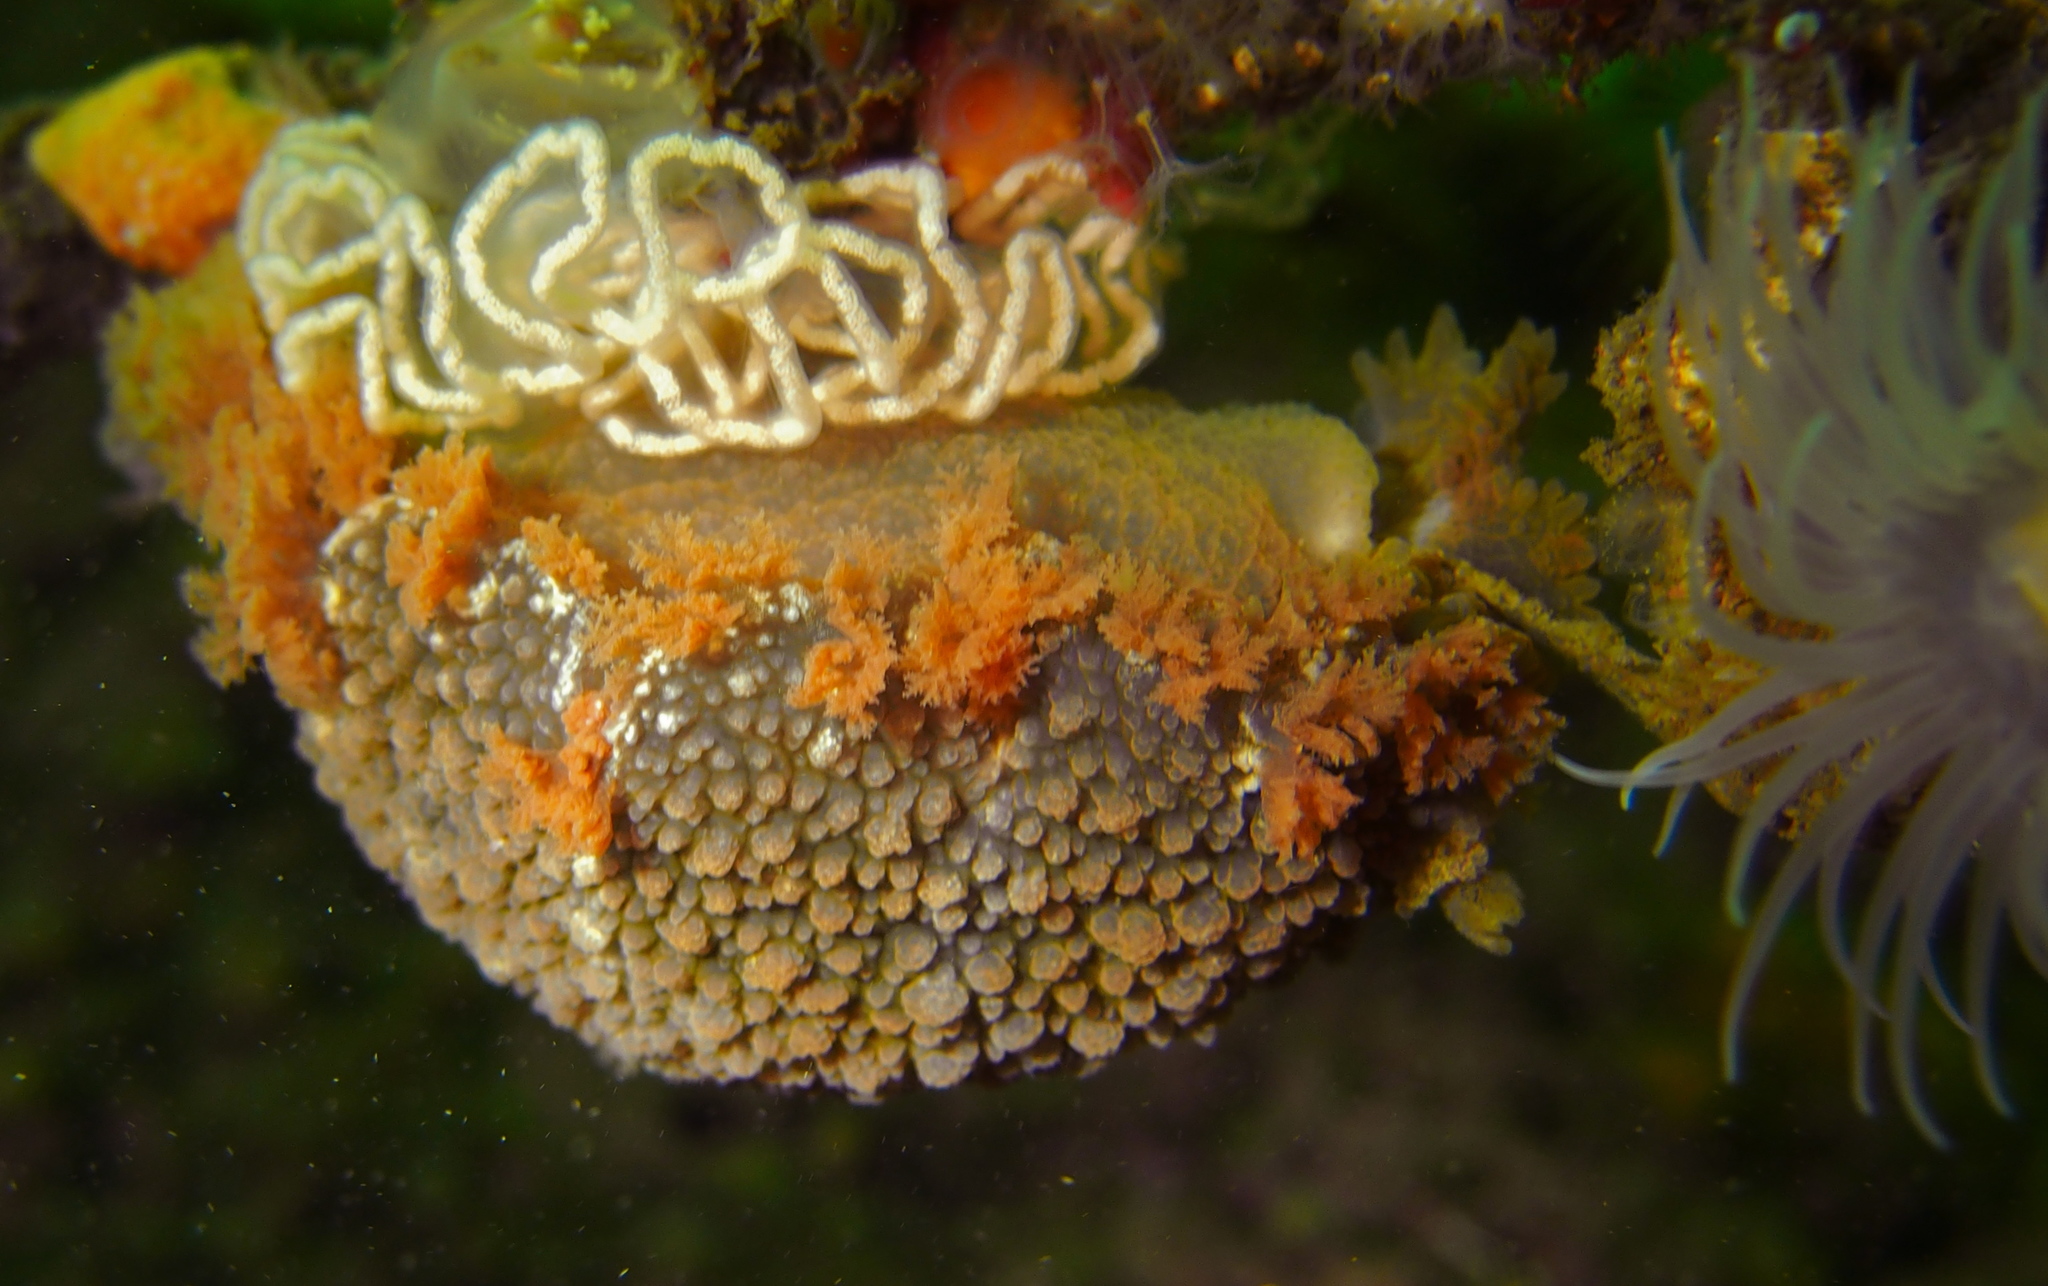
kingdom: Animalia
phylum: Mollusca
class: Gastropoda
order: Nudibranchia
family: Tritoniidae
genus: Tritonia
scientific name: Tritonia hombergii
